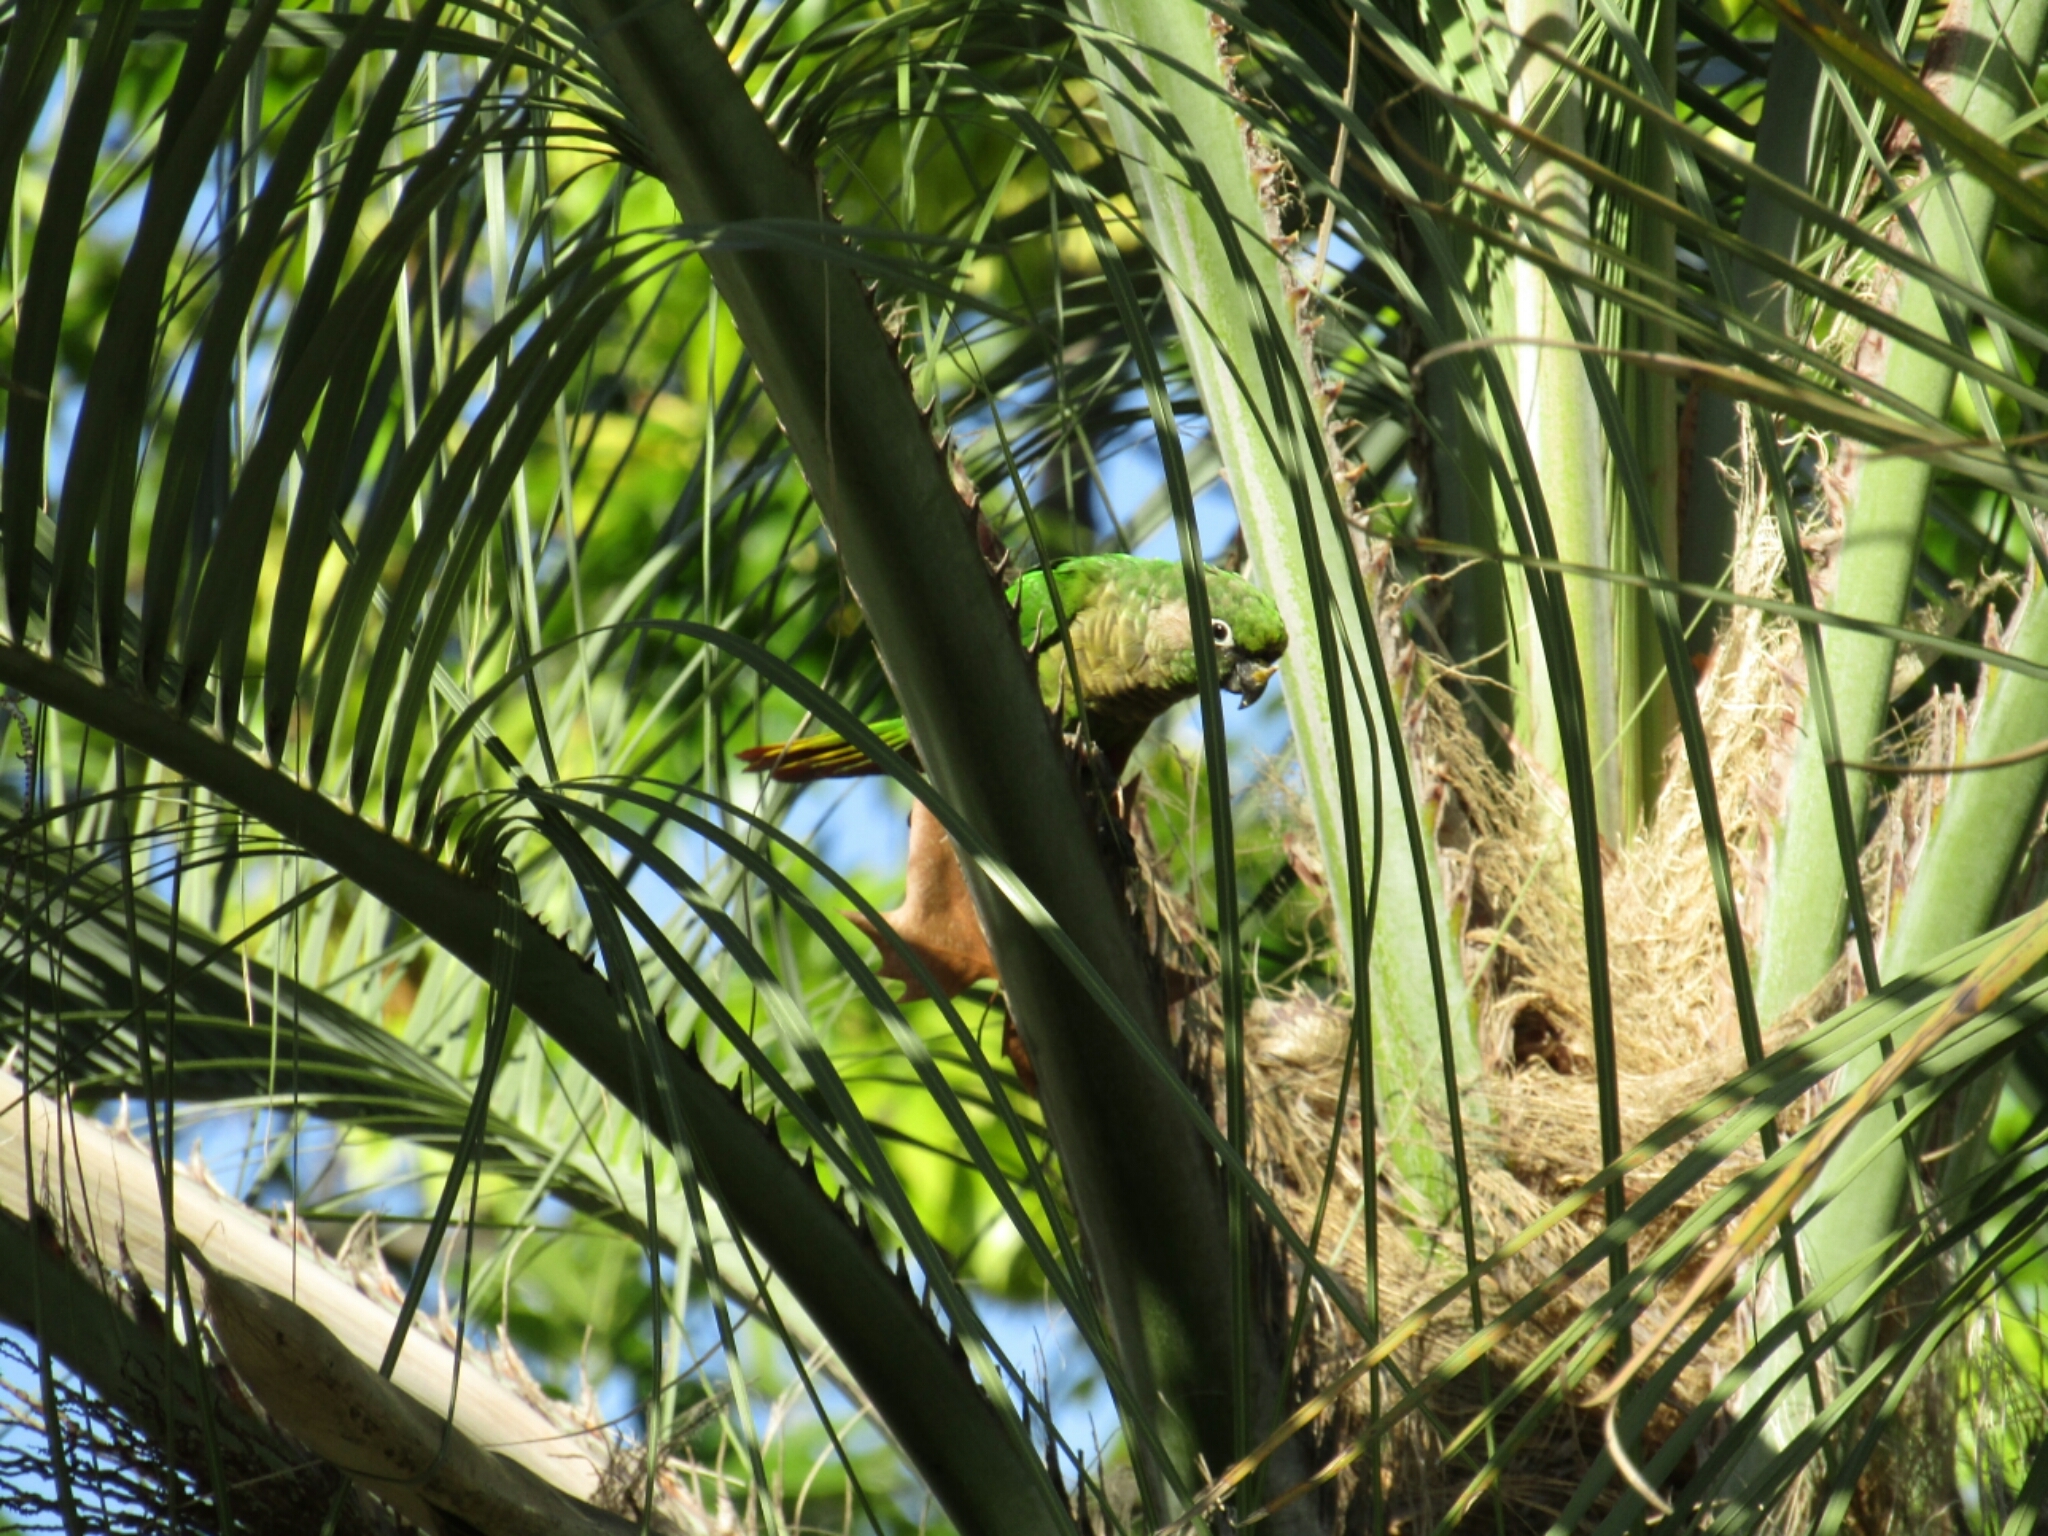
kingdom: Animalia
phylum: Chordata
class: Aves
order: Psittaciformes
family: Psittacidae
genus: Pyrrhura
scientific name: Pyrrhura frontalis
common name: Maroon-bellied parakeet
